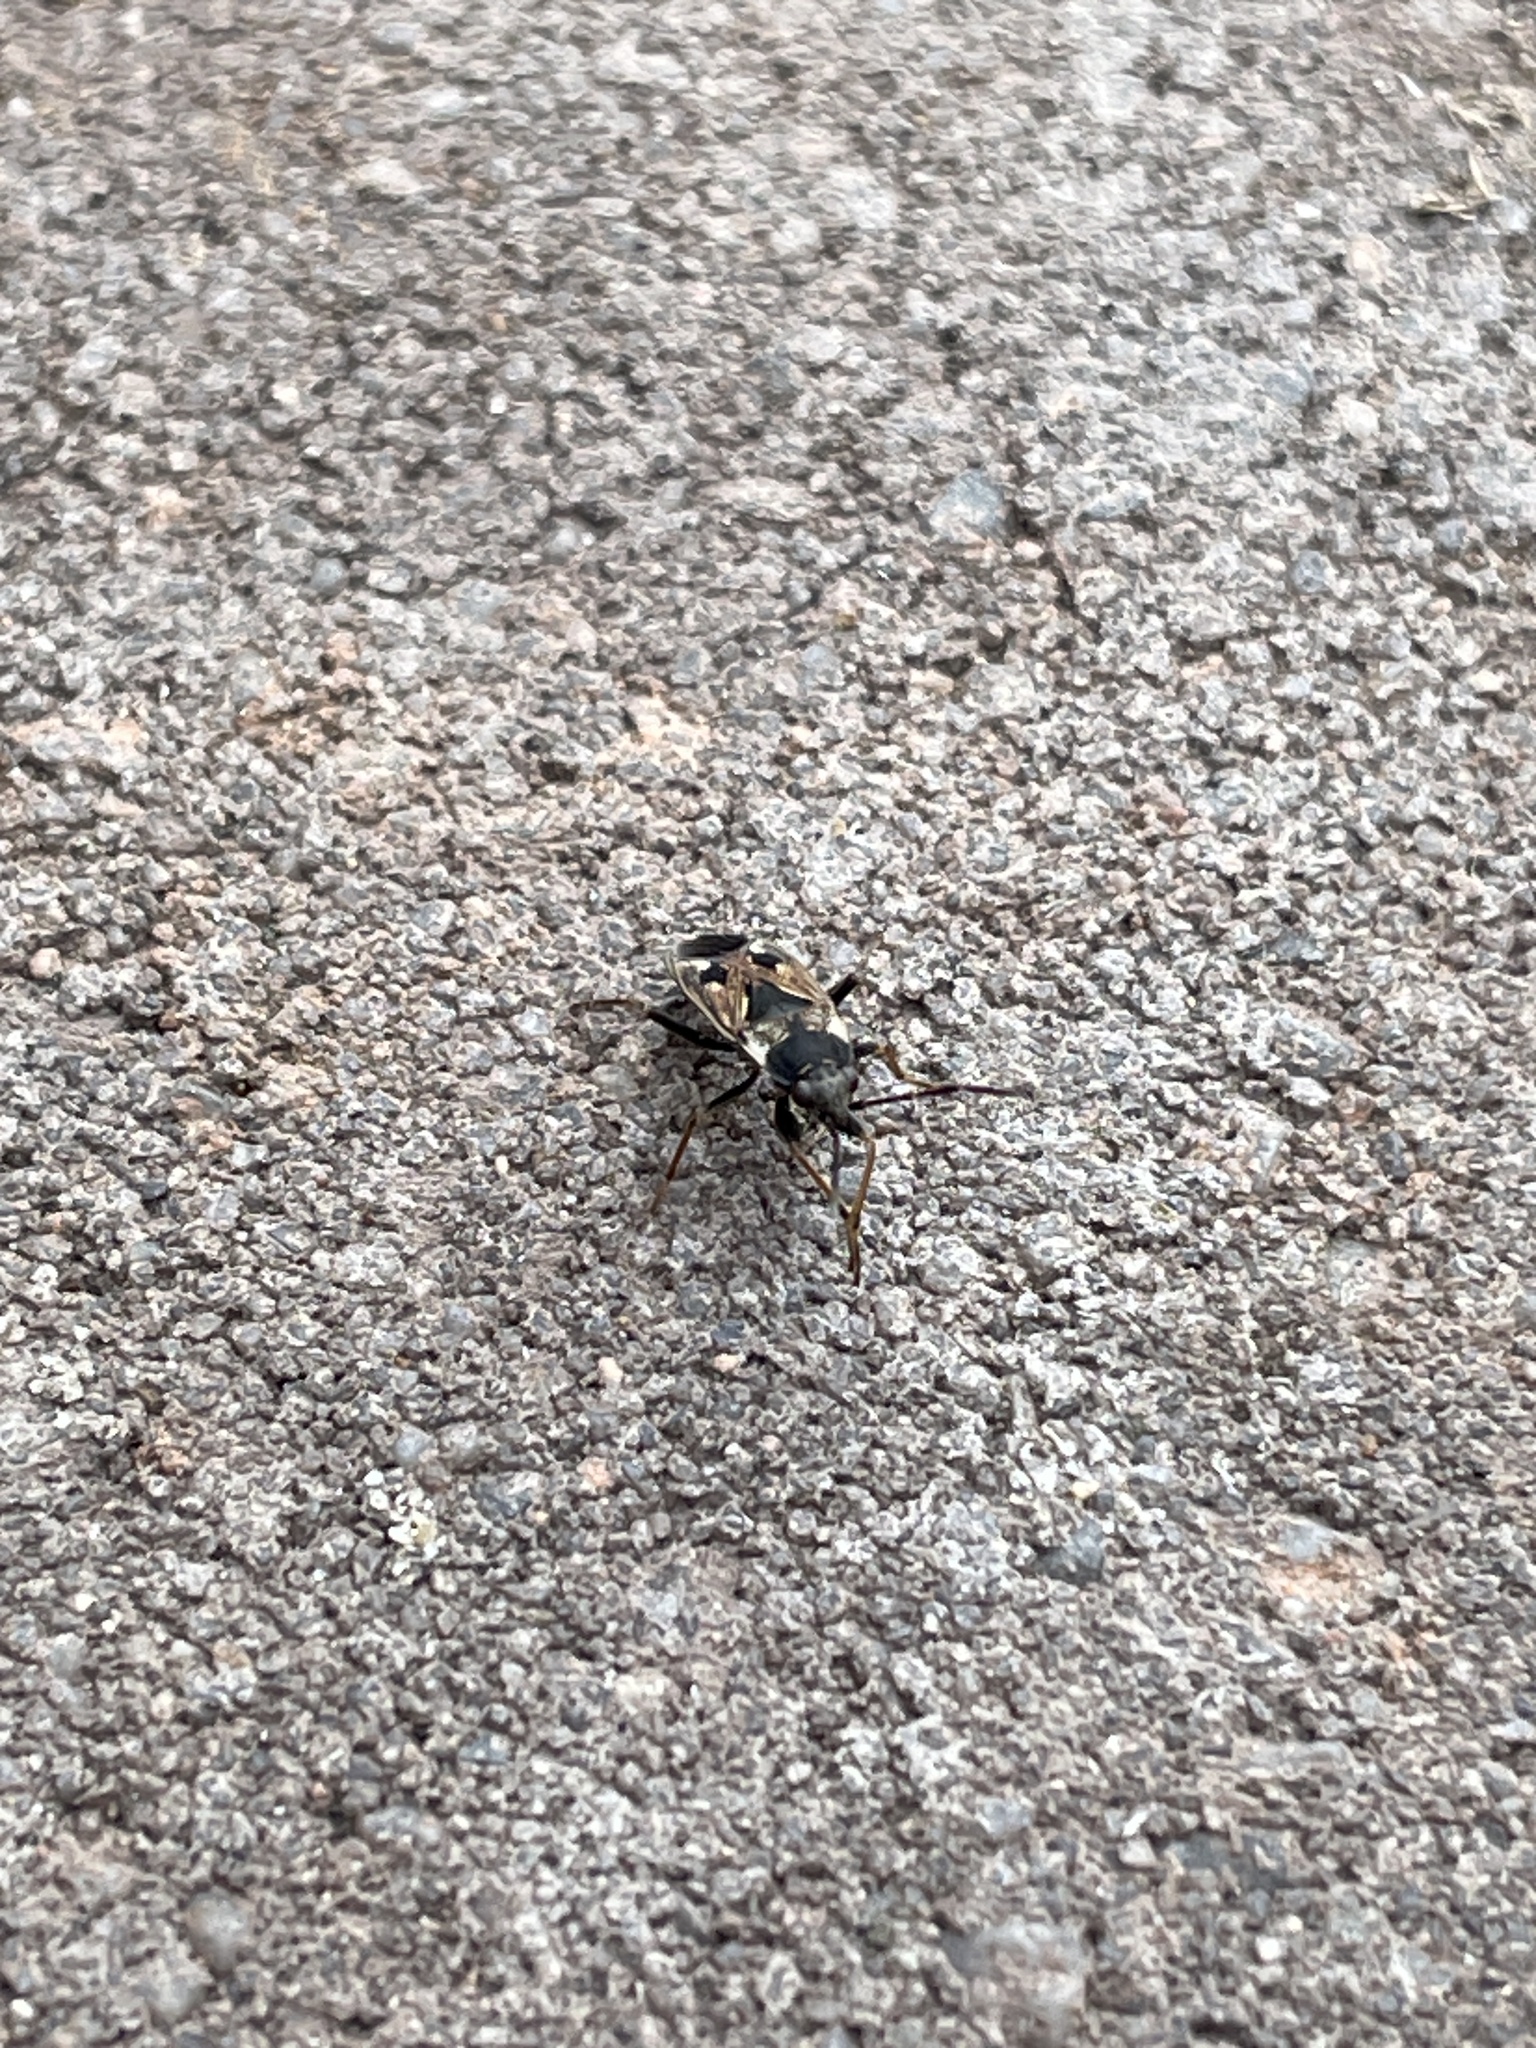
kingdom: Animalia
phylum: Arthropoda
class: Insecta
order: Hemiptera
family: Rhyparochromidae
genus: Rhyparochromus
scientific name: Rhyparochromus vulgaris
